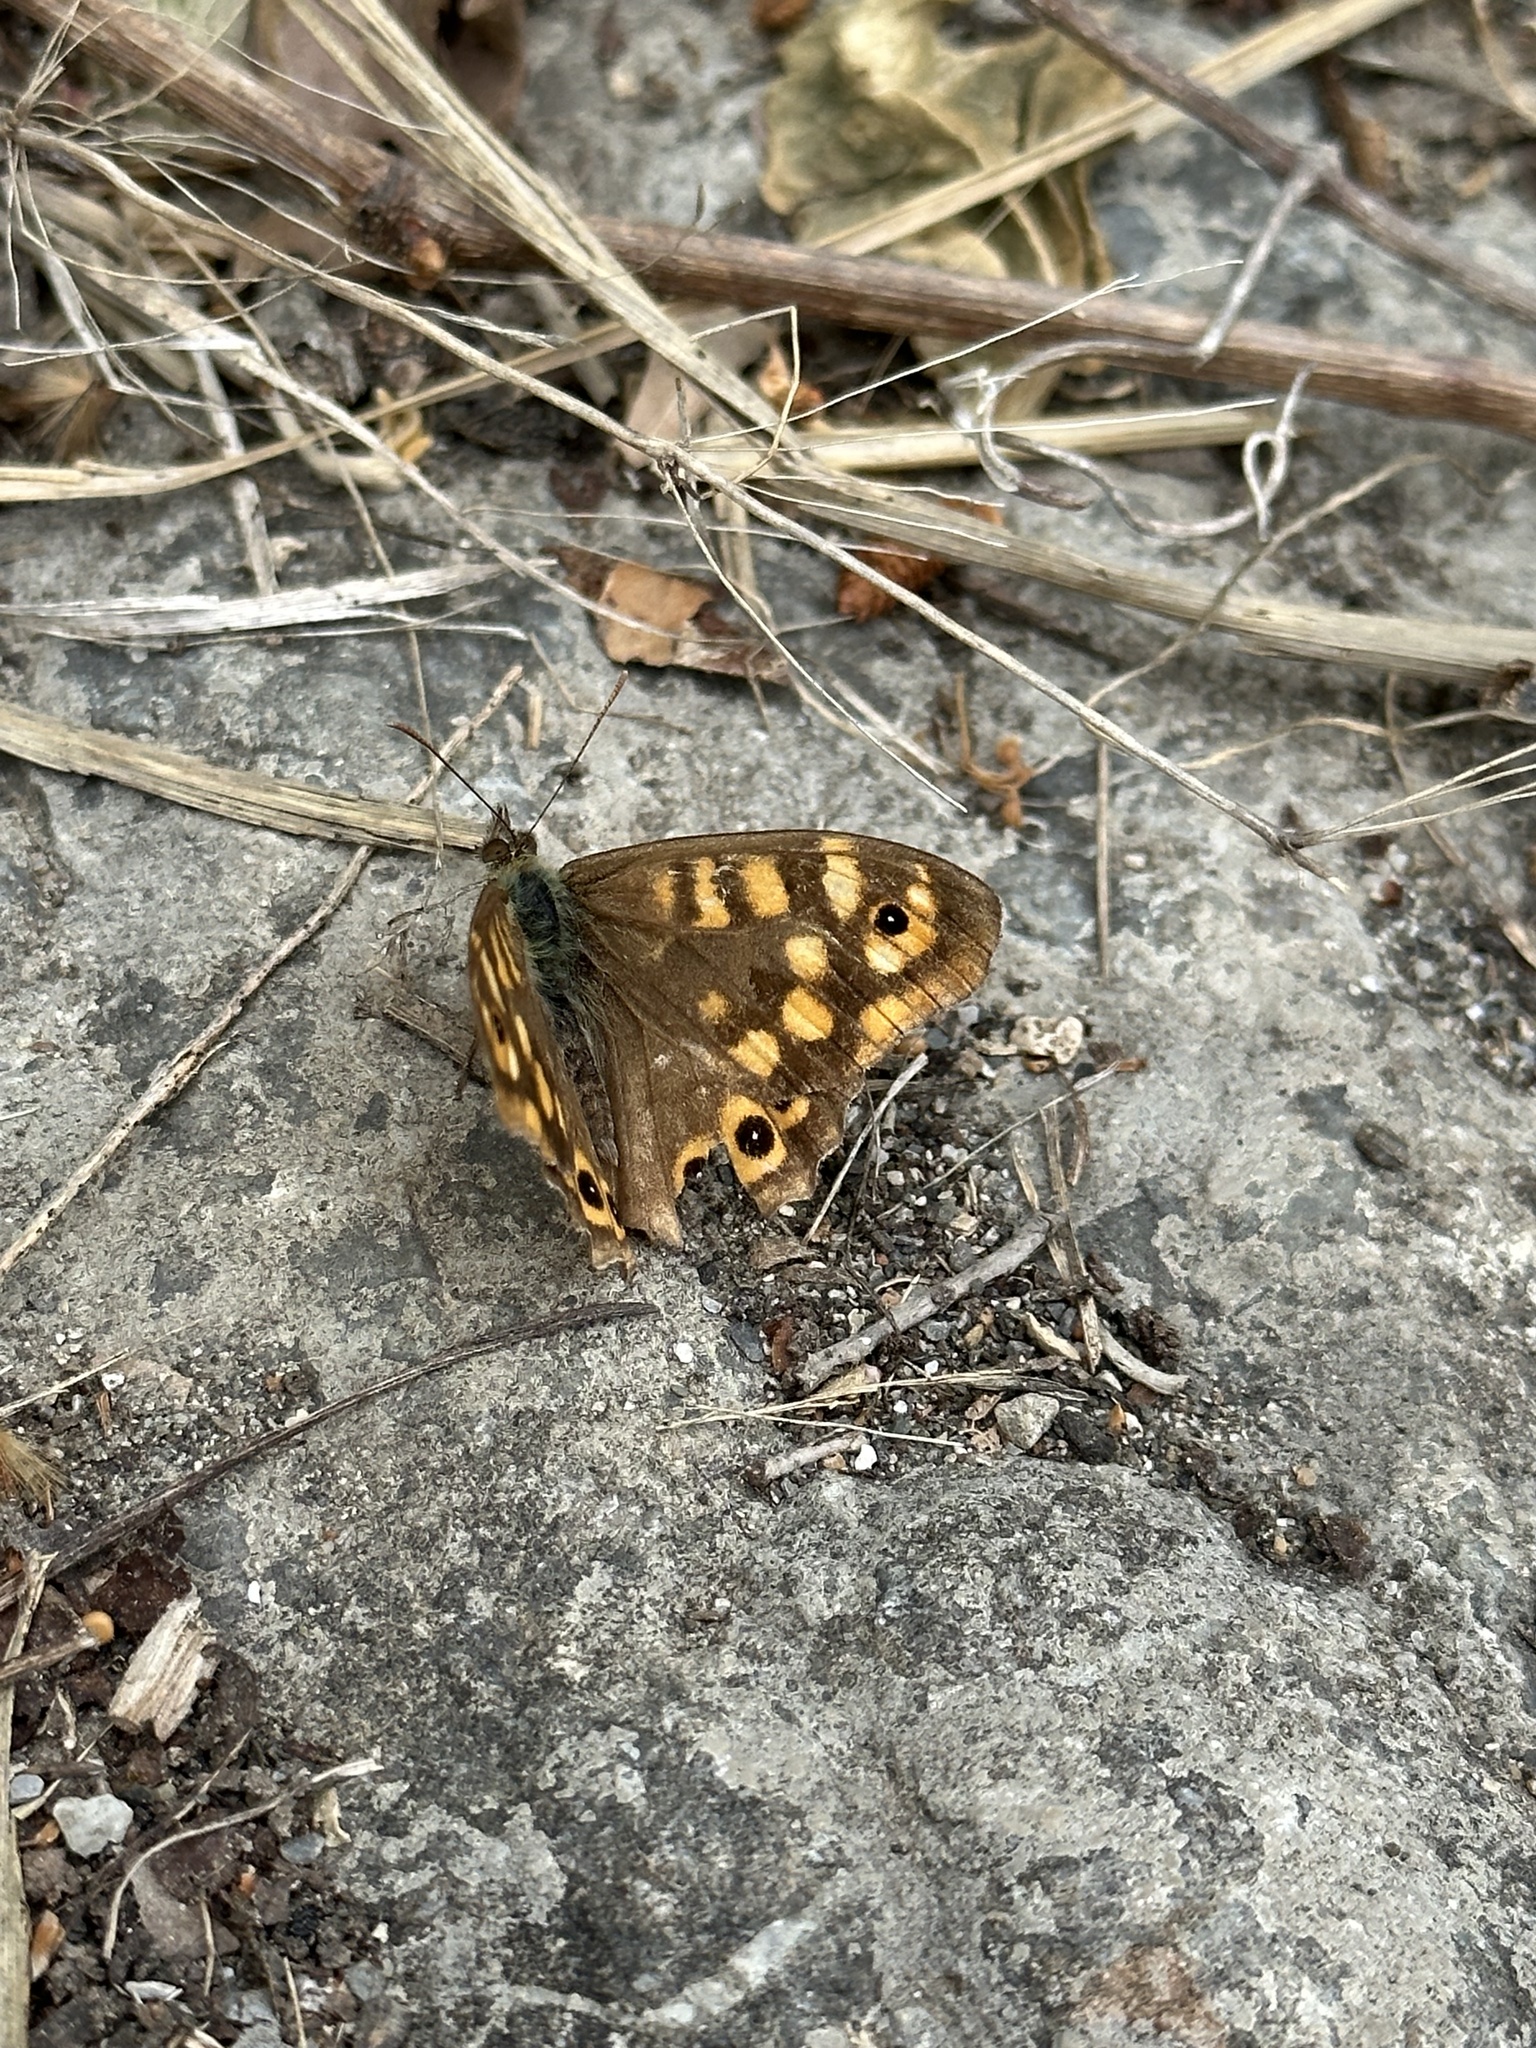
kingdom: Animalia
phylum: Arthropoda
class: Insecta
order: Lepidoptera
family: Nymphalidae
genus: Pararge
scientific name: Pararge aegeria
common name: Speckled wood
